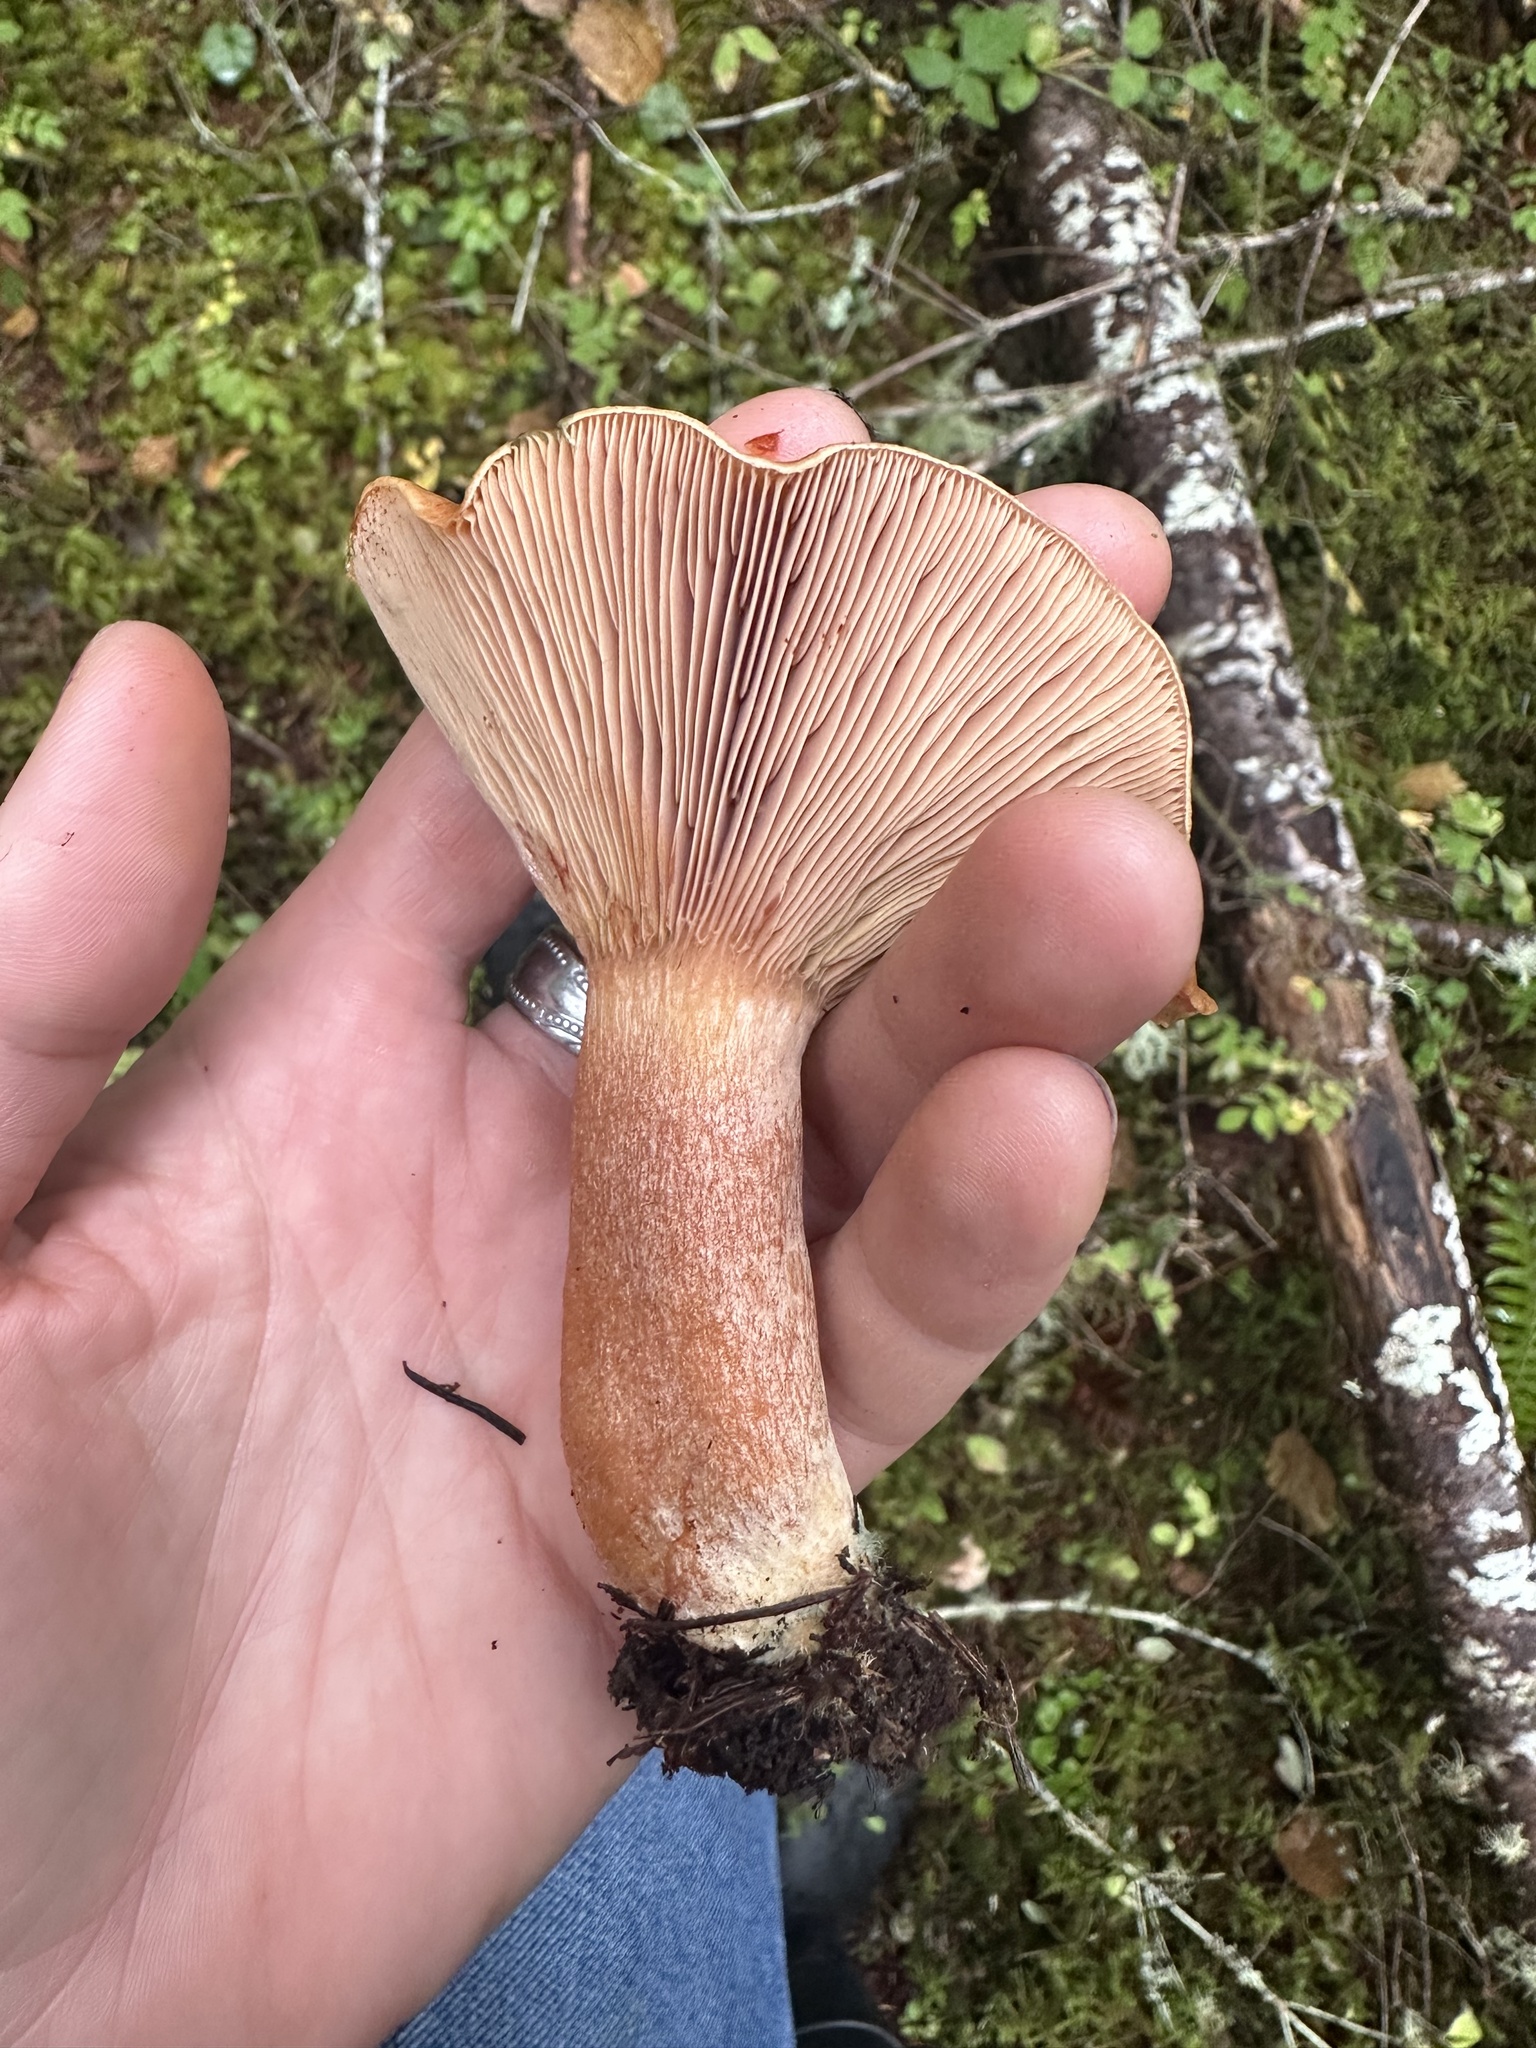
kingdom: Fungi
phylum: Basidiomycota
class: Agaricomycetes
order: Russulales
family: Russulaceae
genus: Lactarius
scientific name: Lactarius rubrilacteus
